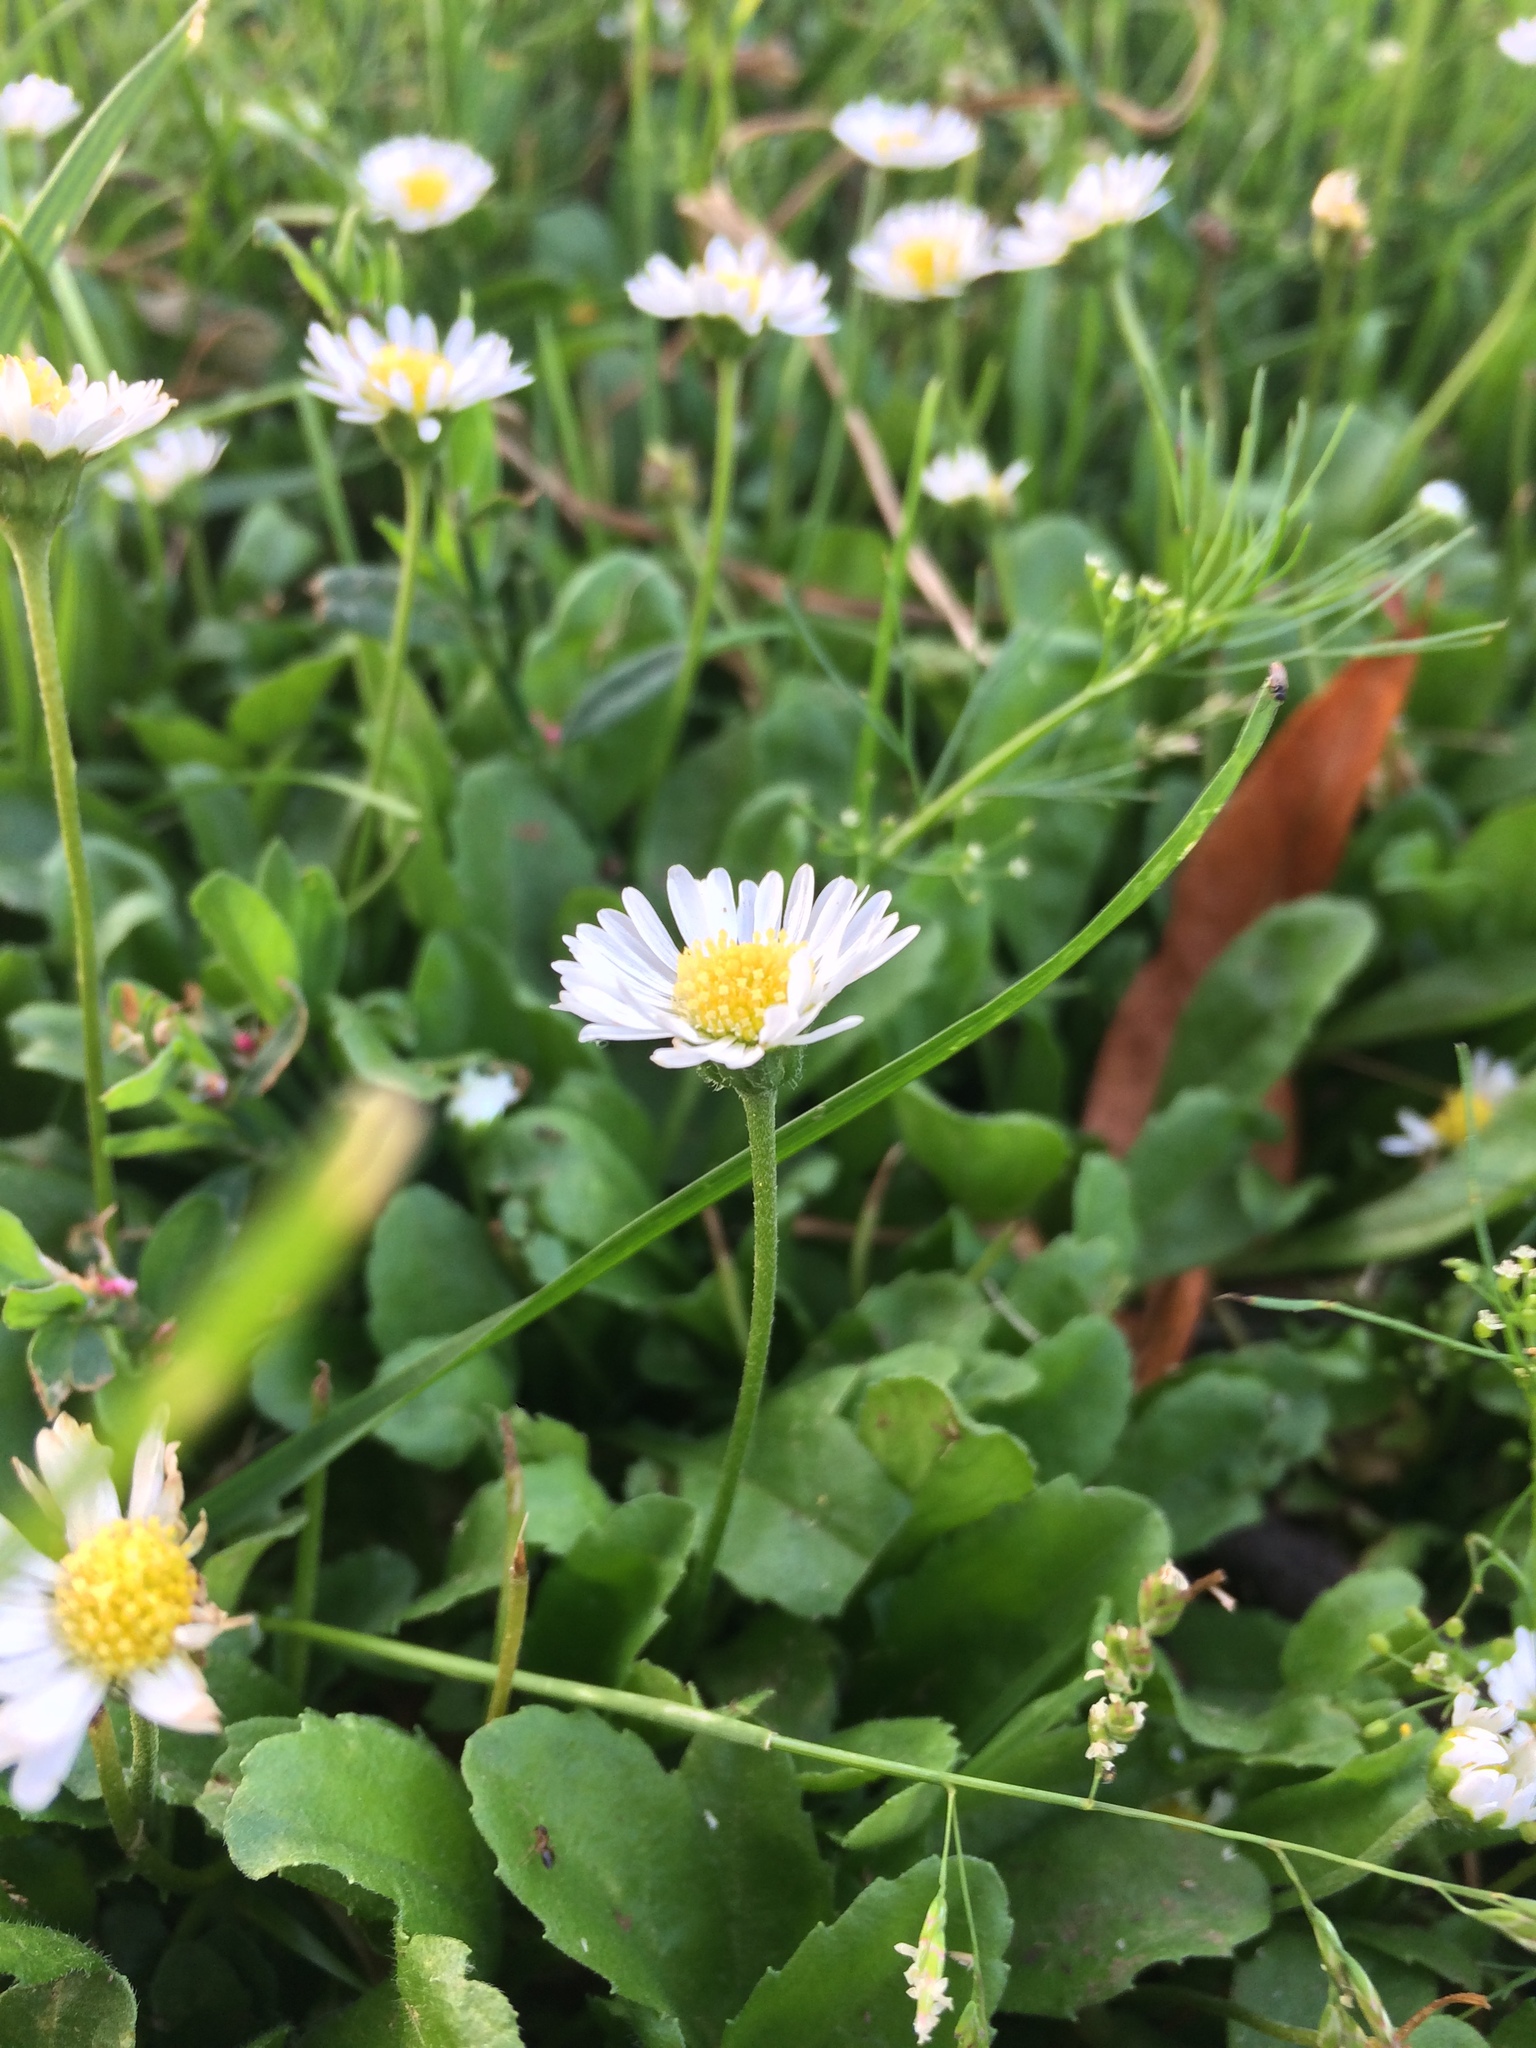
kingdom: Plantae
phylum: Tracheophyta
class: Magnoliopsida
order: Asterales
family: Asteraceae
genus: Bellis
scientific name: Bellis perennis
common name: Lawndaisy
